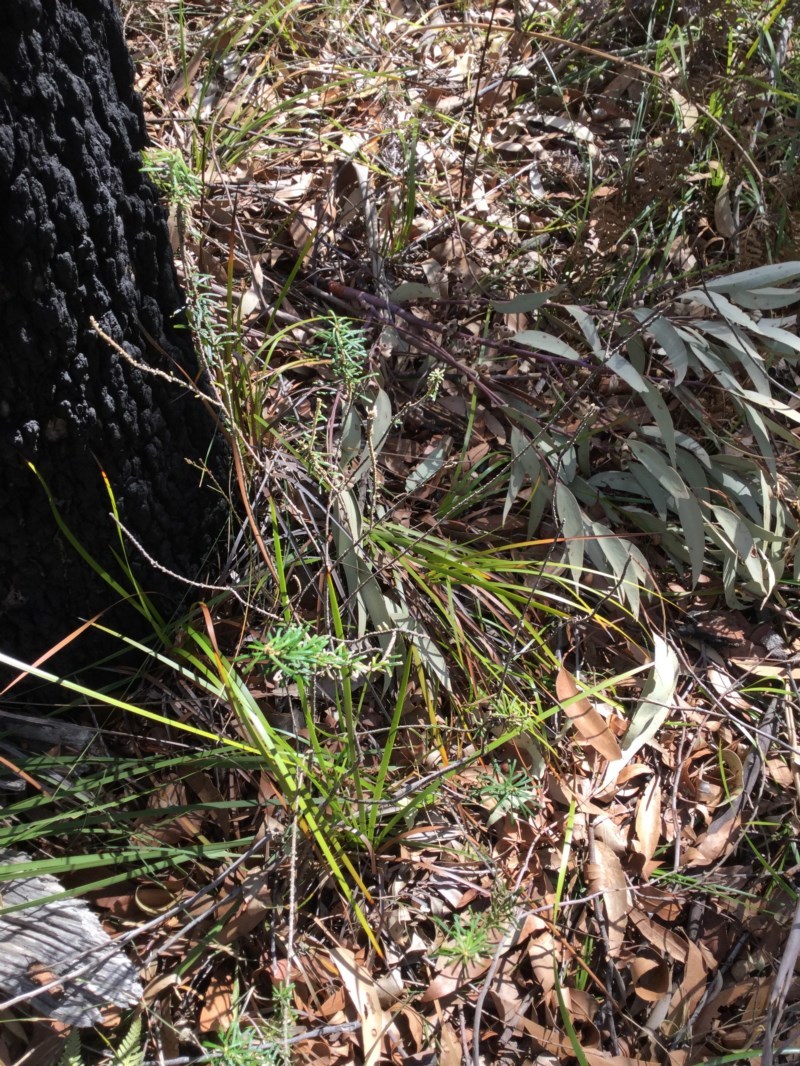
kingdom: Plantae
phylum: Tracheophyta
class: Magnoliopsida
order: Apiales
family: Araliaceae
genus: Astrotricha
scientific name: Astrotricha
